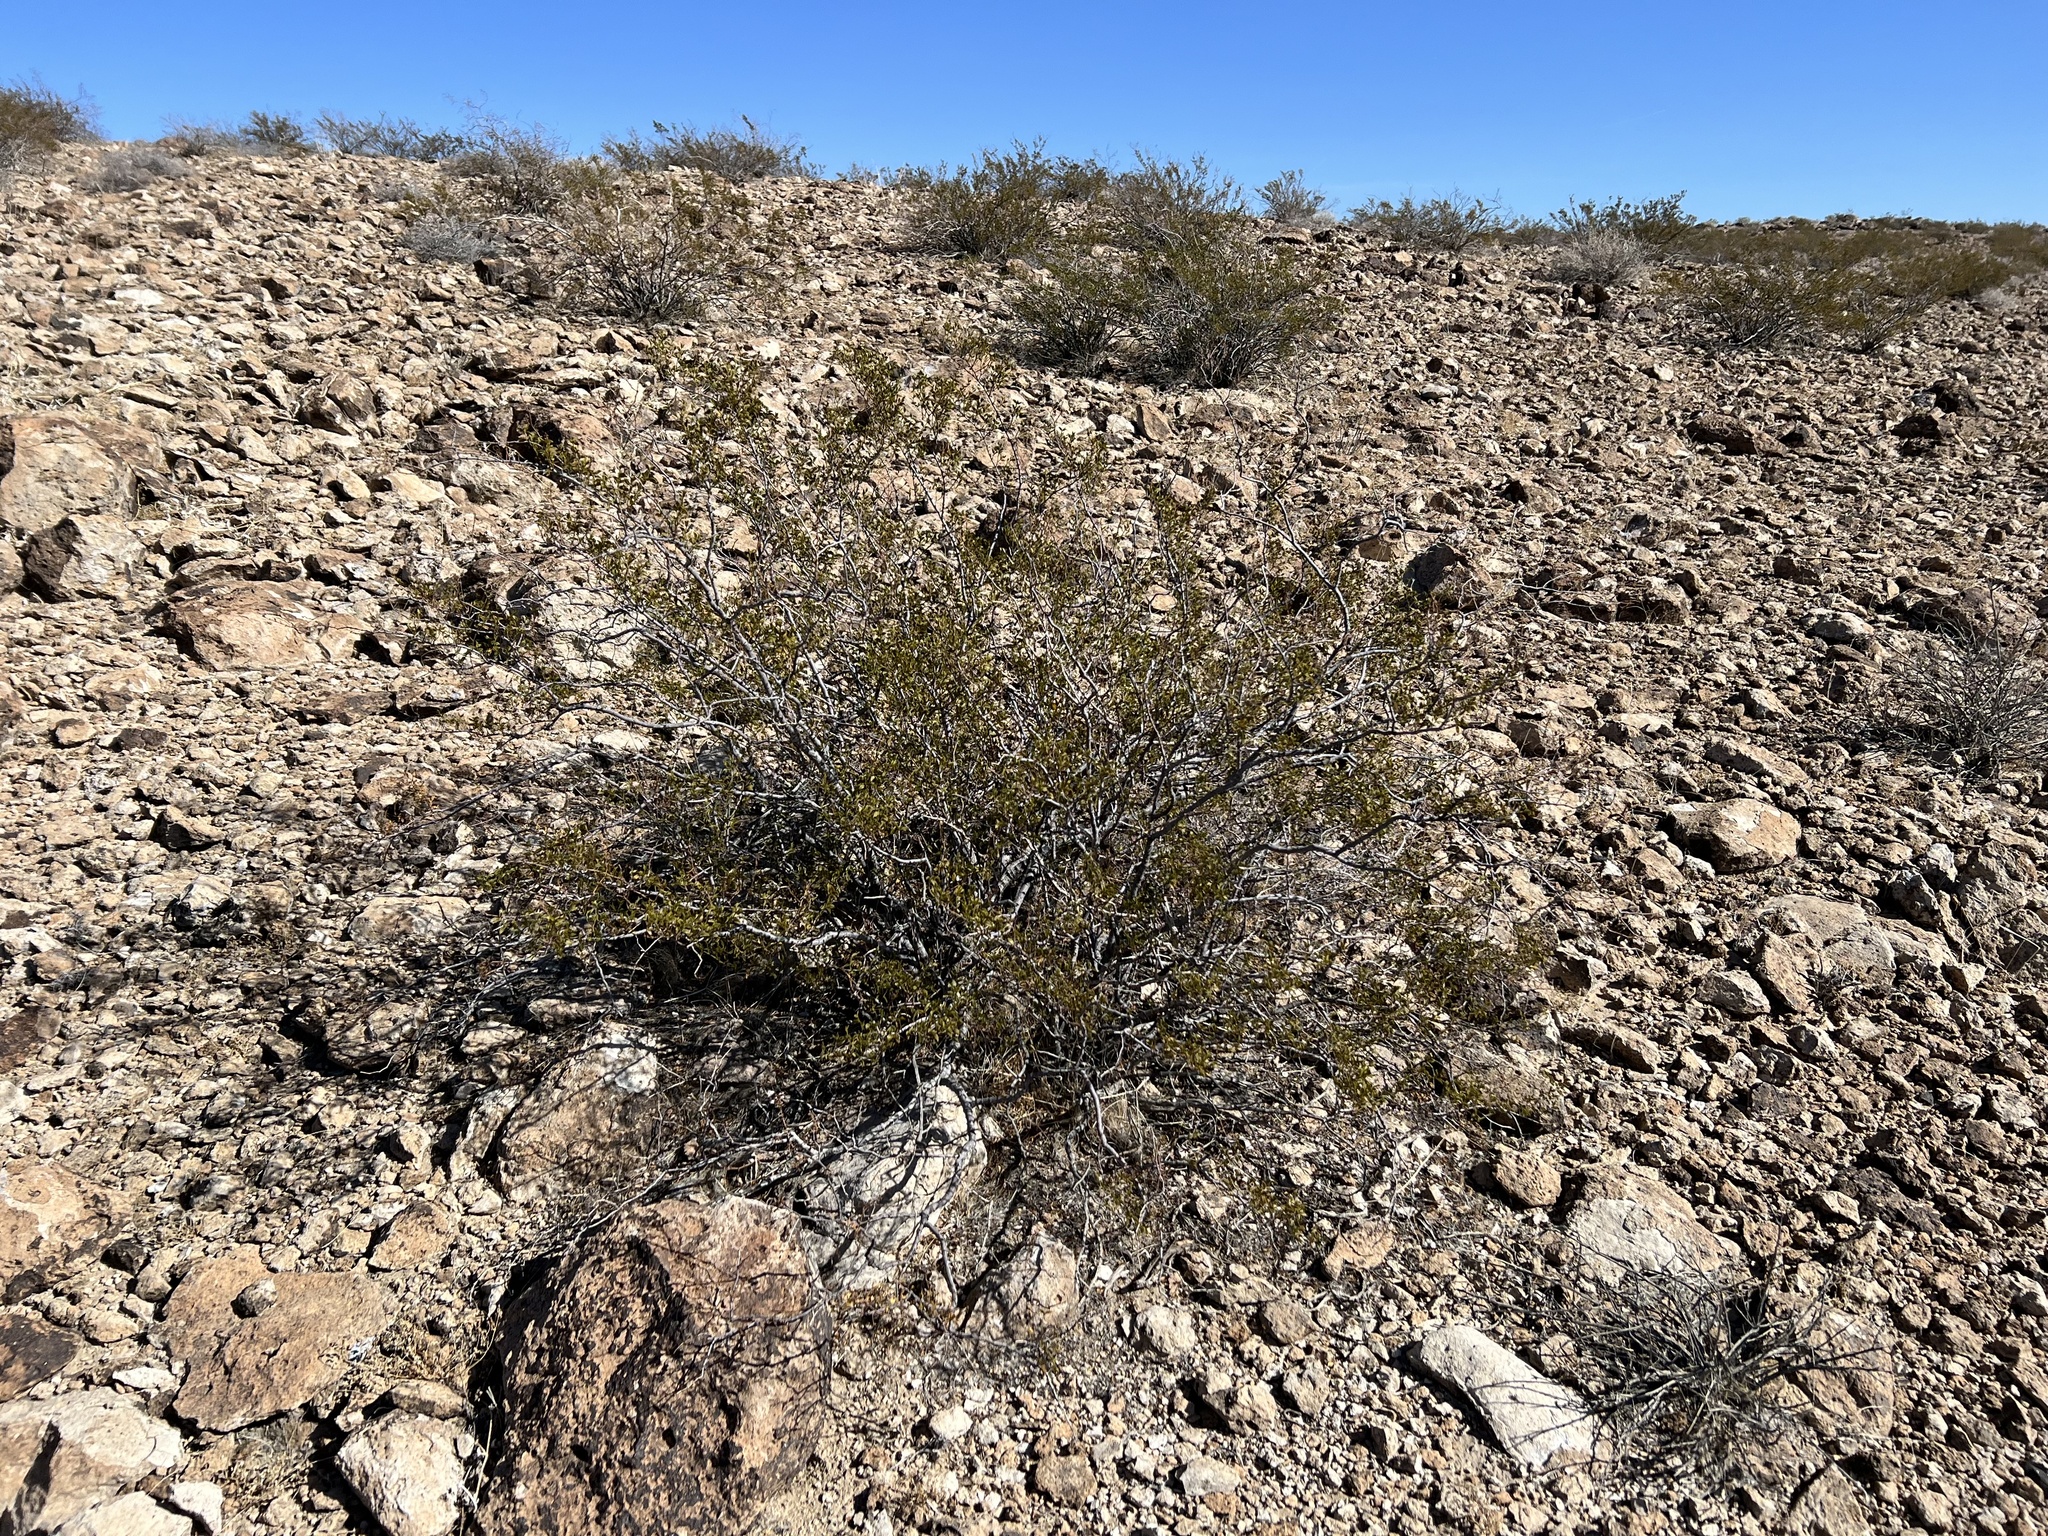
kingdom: Plantae
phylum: Tracheophyta
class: Magnoliopsida
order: Zygophyllales
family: Zygophyllaceae
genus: Larrea
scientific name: Larrea tridentata
